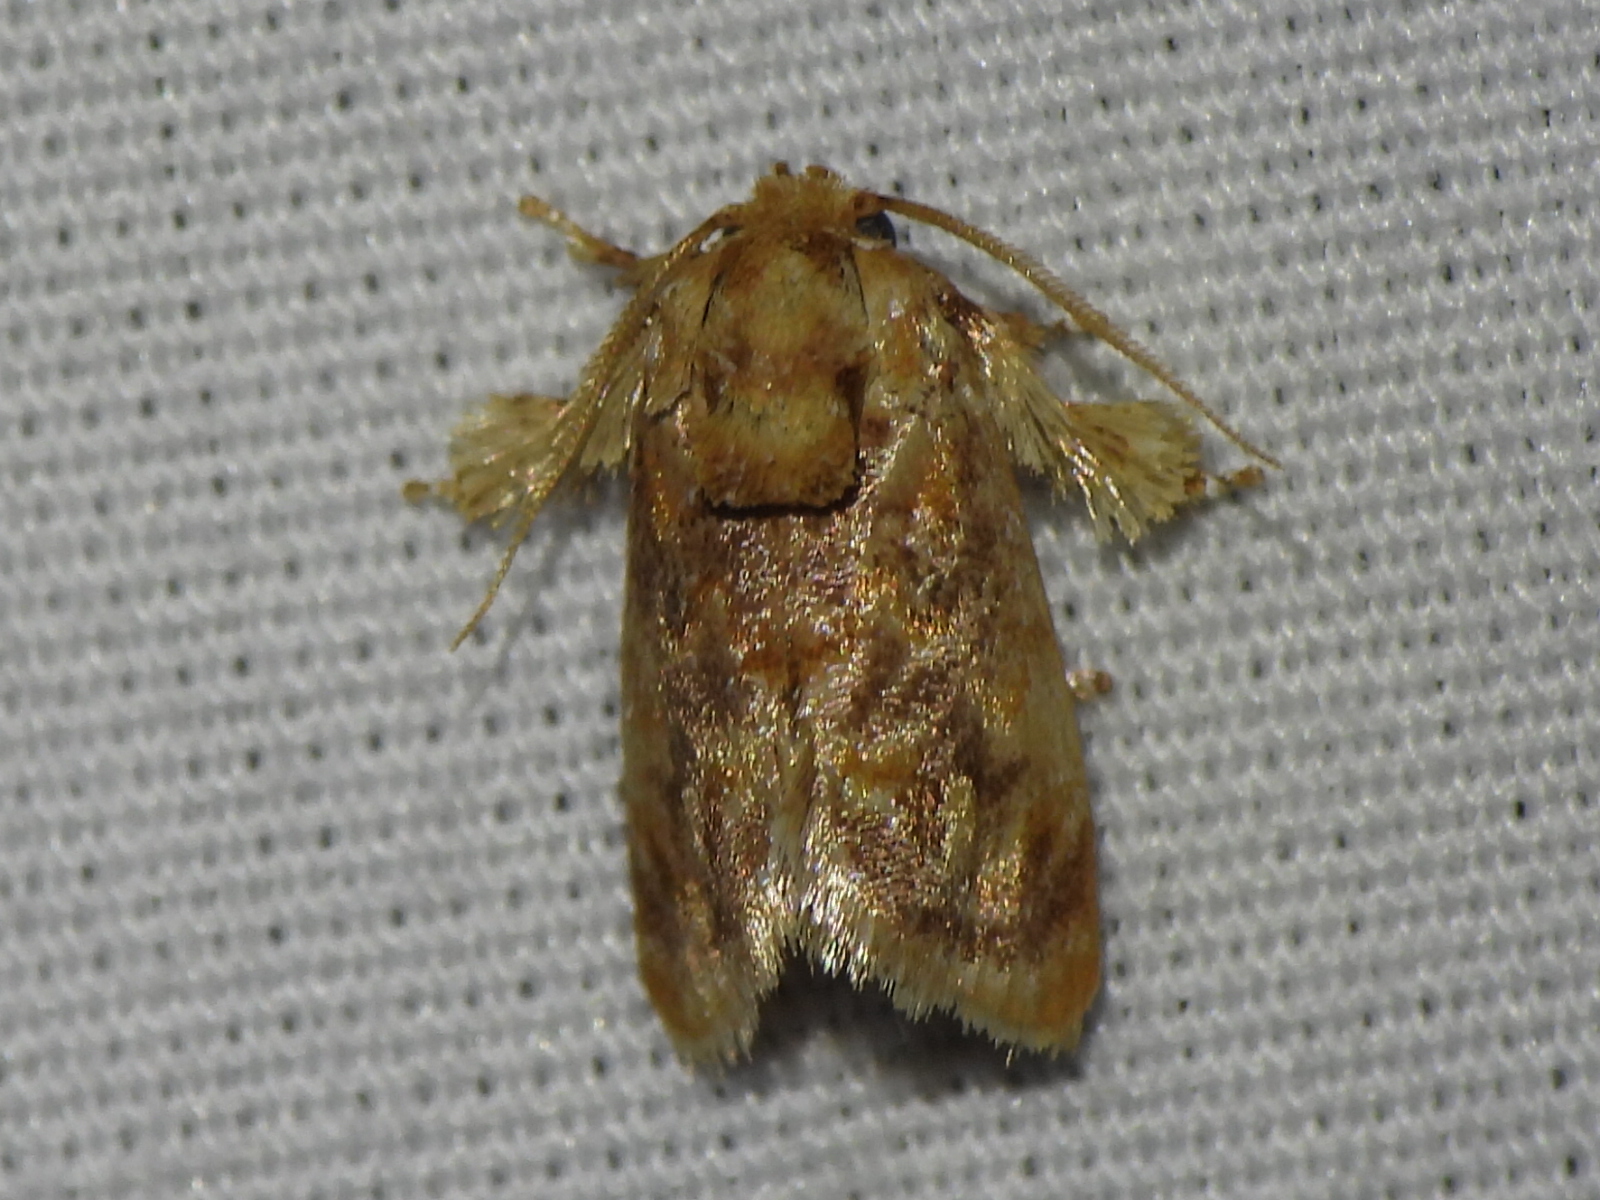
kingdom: Animalia
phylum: Arthropoda
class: Insecta
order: Lepidoptera
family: Limacodidae
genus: Isochaetes
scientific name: Isochaetes beutenmuelleri
